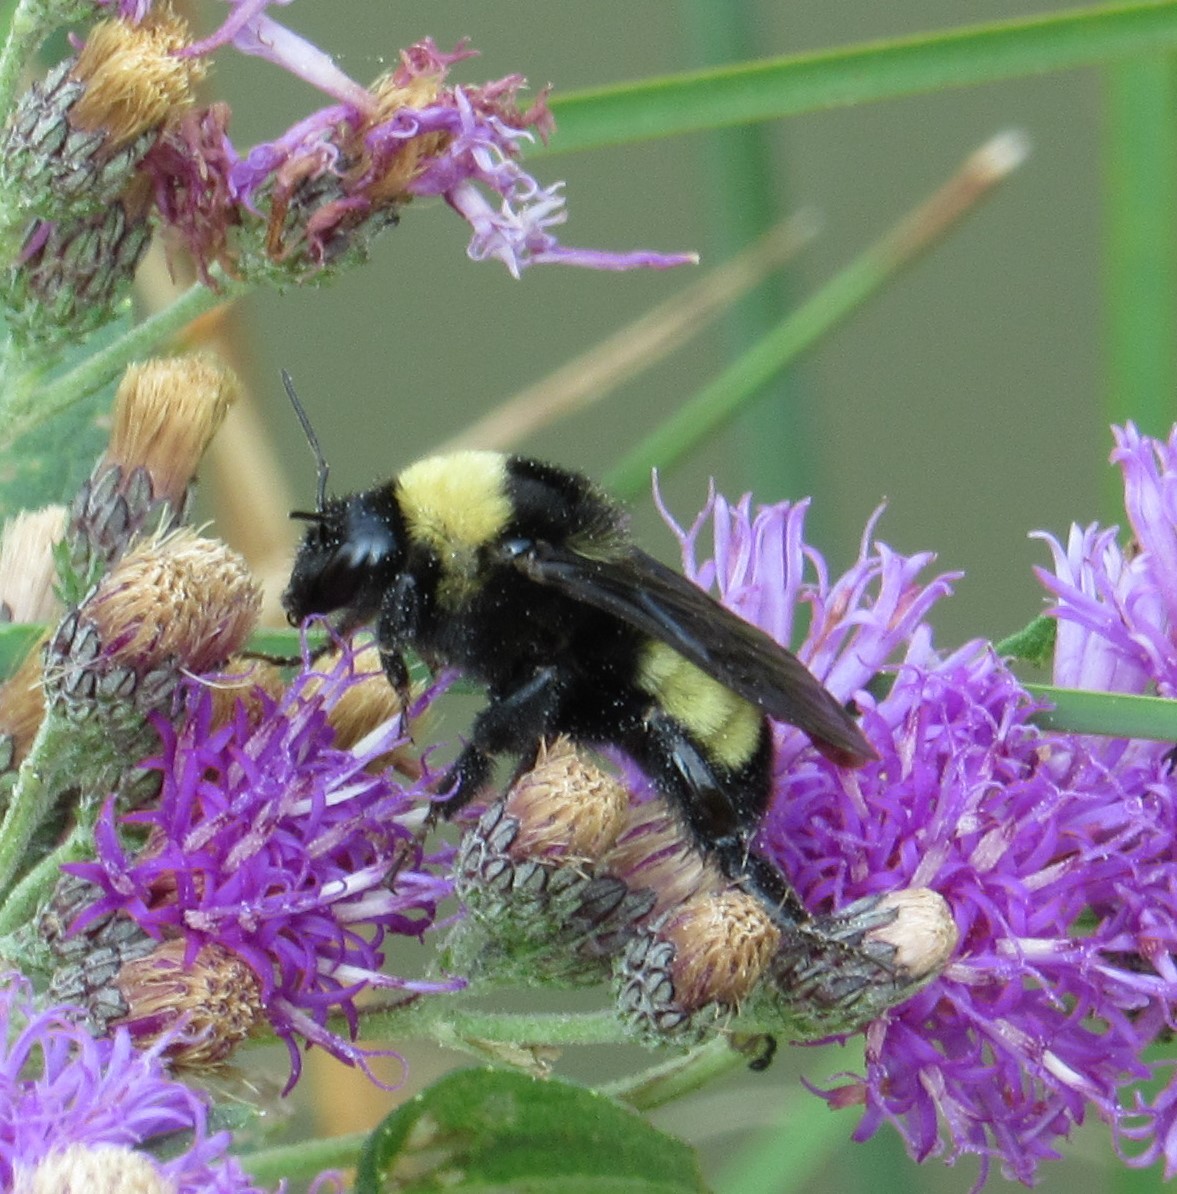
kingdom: Animalia
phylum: Arthropoda
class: Insecta
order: Hymenoptera
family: Apidae
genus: Bombus
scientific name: Bombus pensylvanicus
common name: Bumble bee
